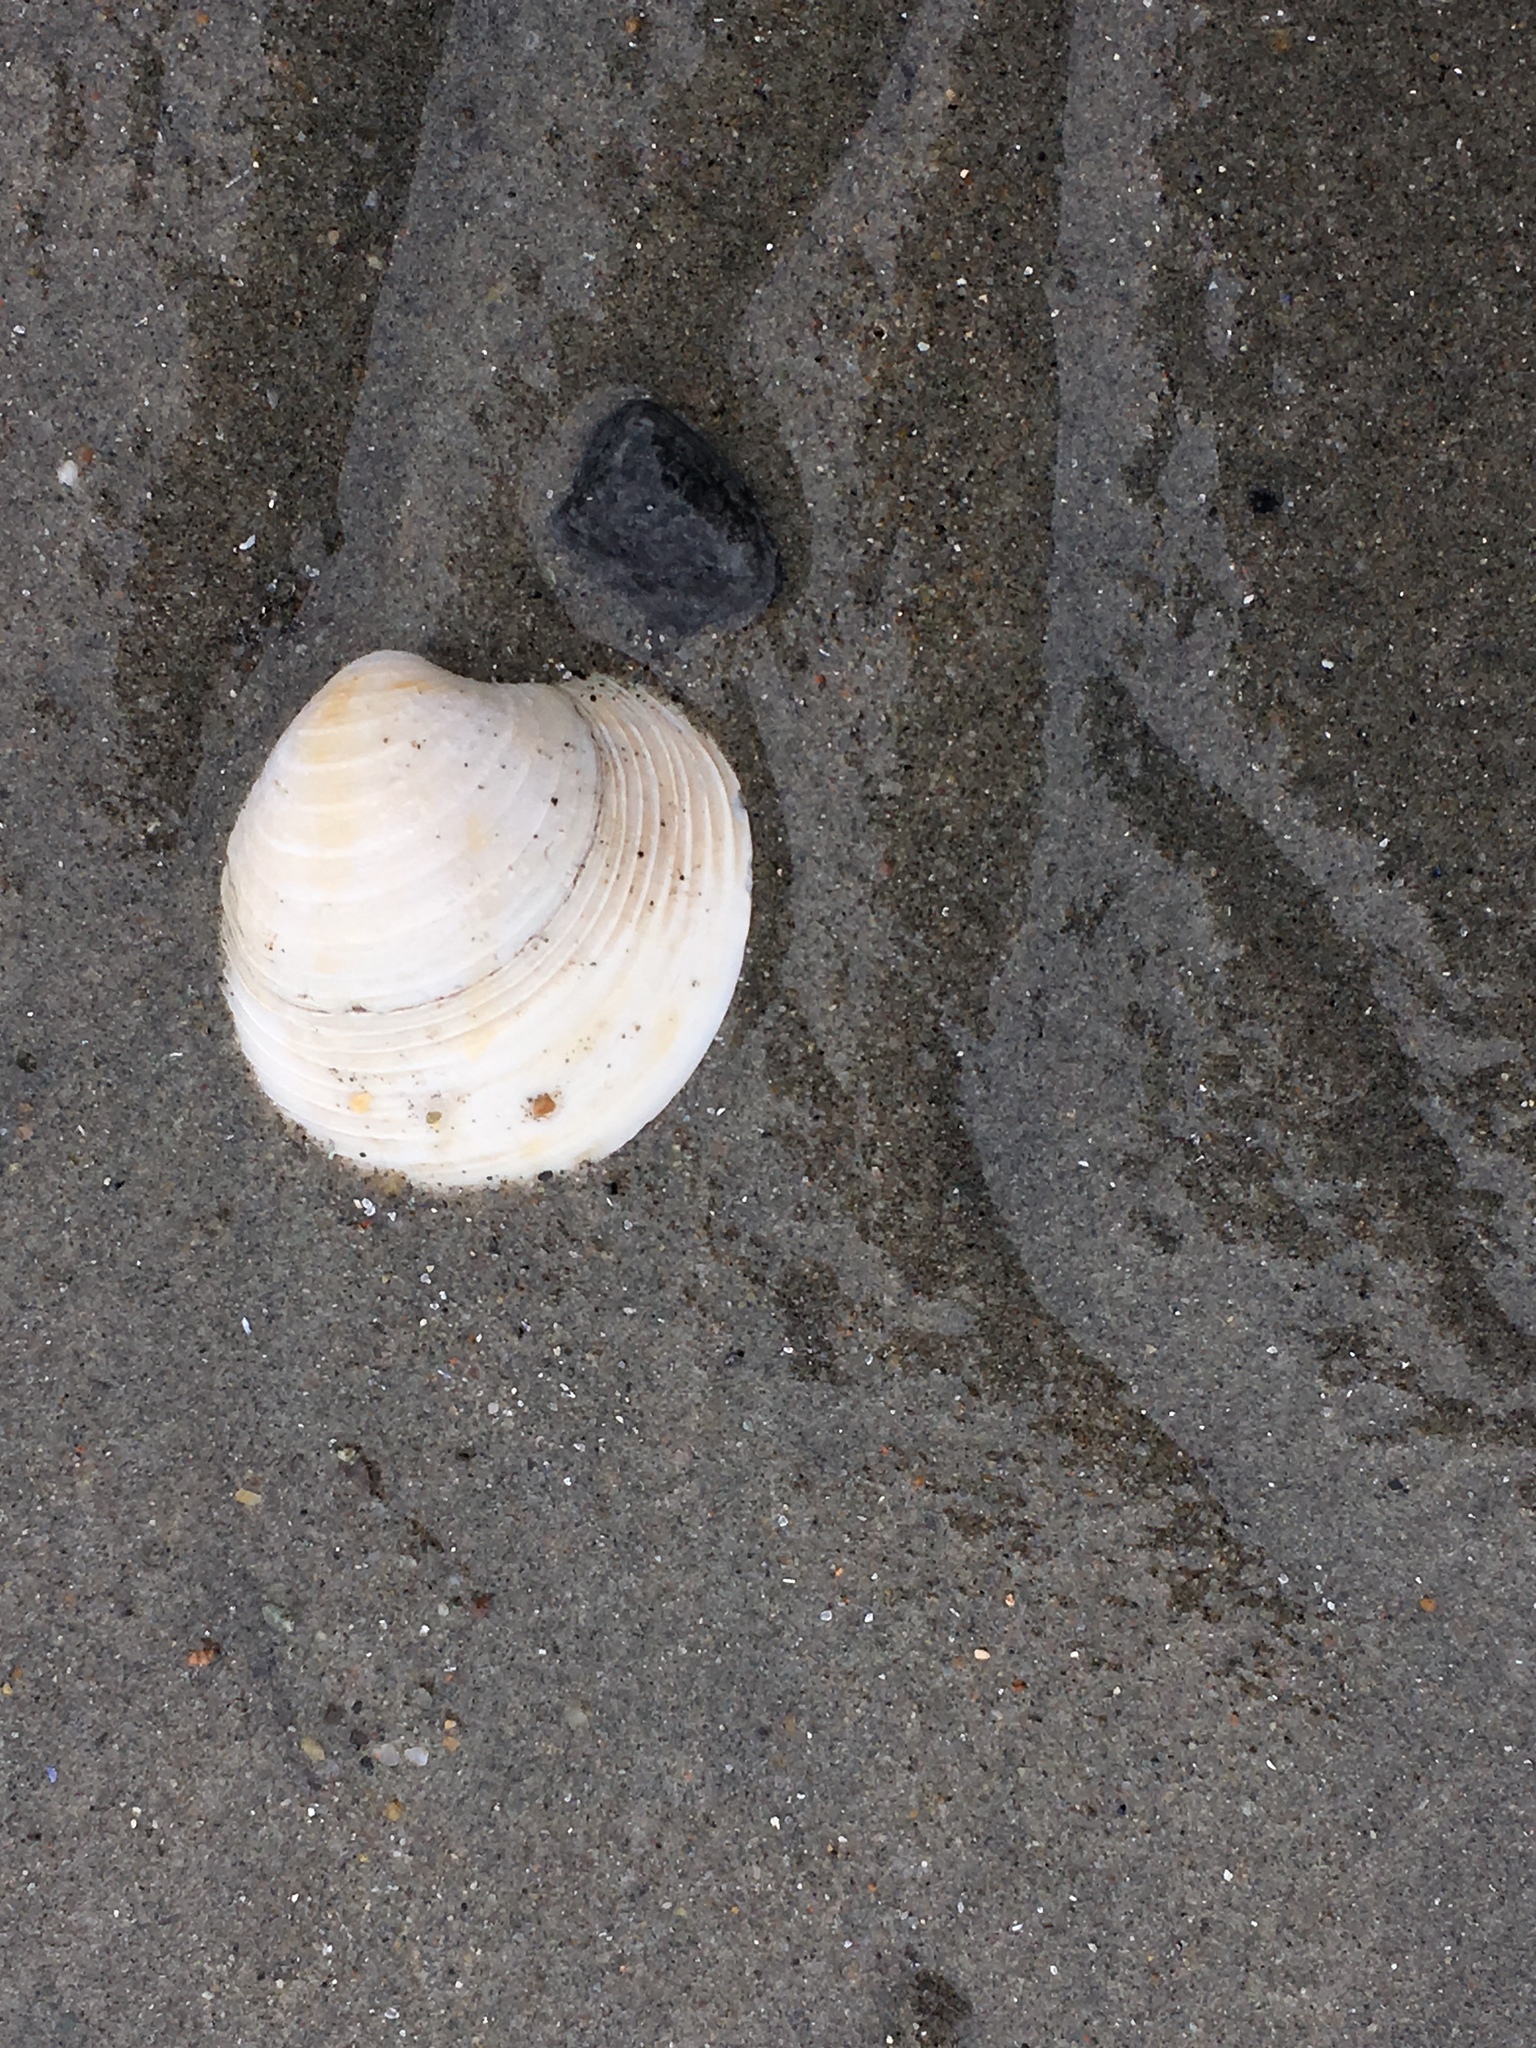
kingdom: Animalia
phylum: Mollusca
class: Bivalvia
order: Venerida
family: Veneridae
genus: Mercenaria
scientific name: Mercenaria mercenaria
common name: American hard-shelled clam
